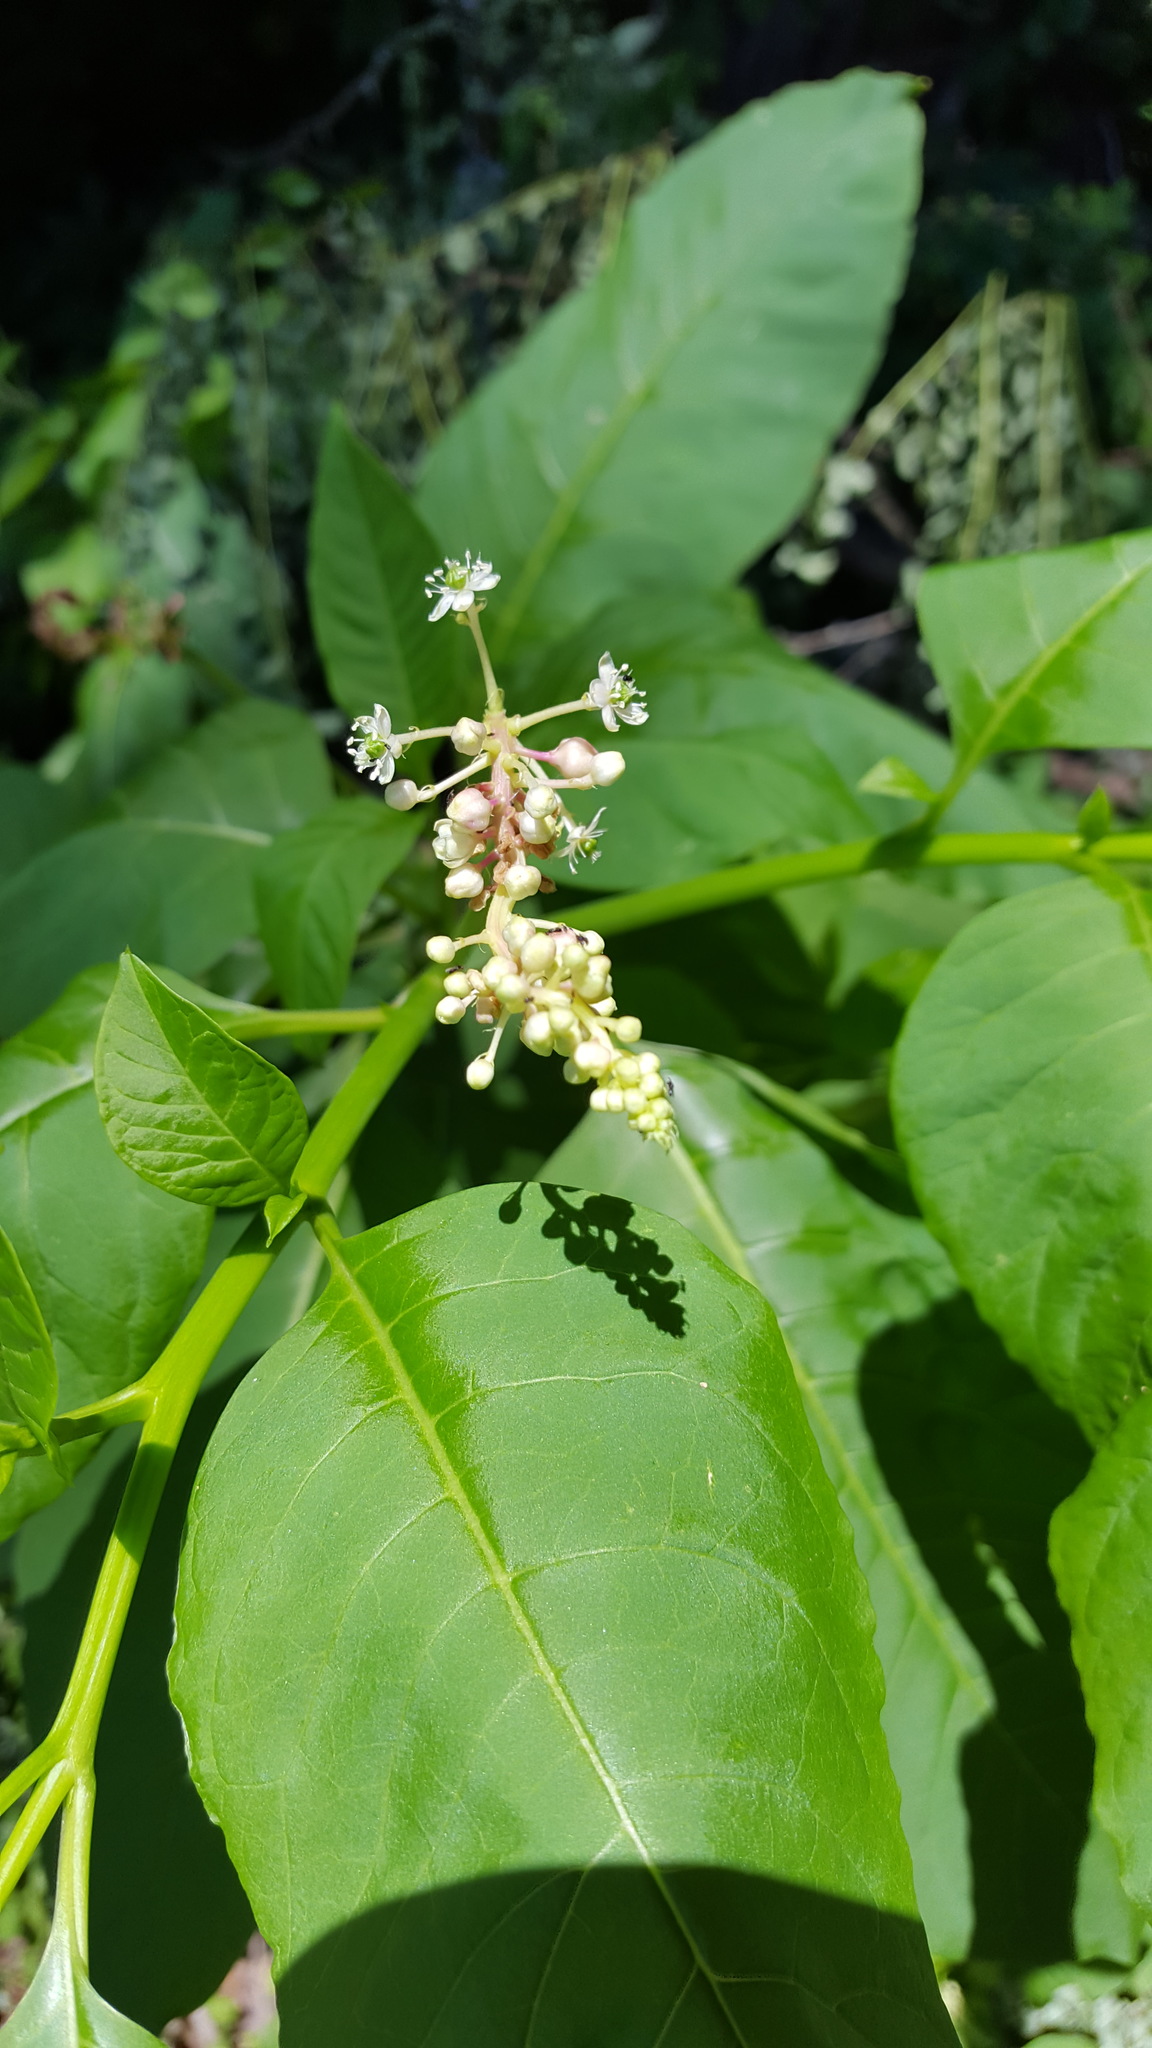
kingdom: Plantae
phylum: Tracheophyta
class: Magnoliopsida
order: Caryophyllales
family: Phytolaccaceae
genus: Phytolacca
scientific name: Phytolacca americana
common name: American pokeweed
